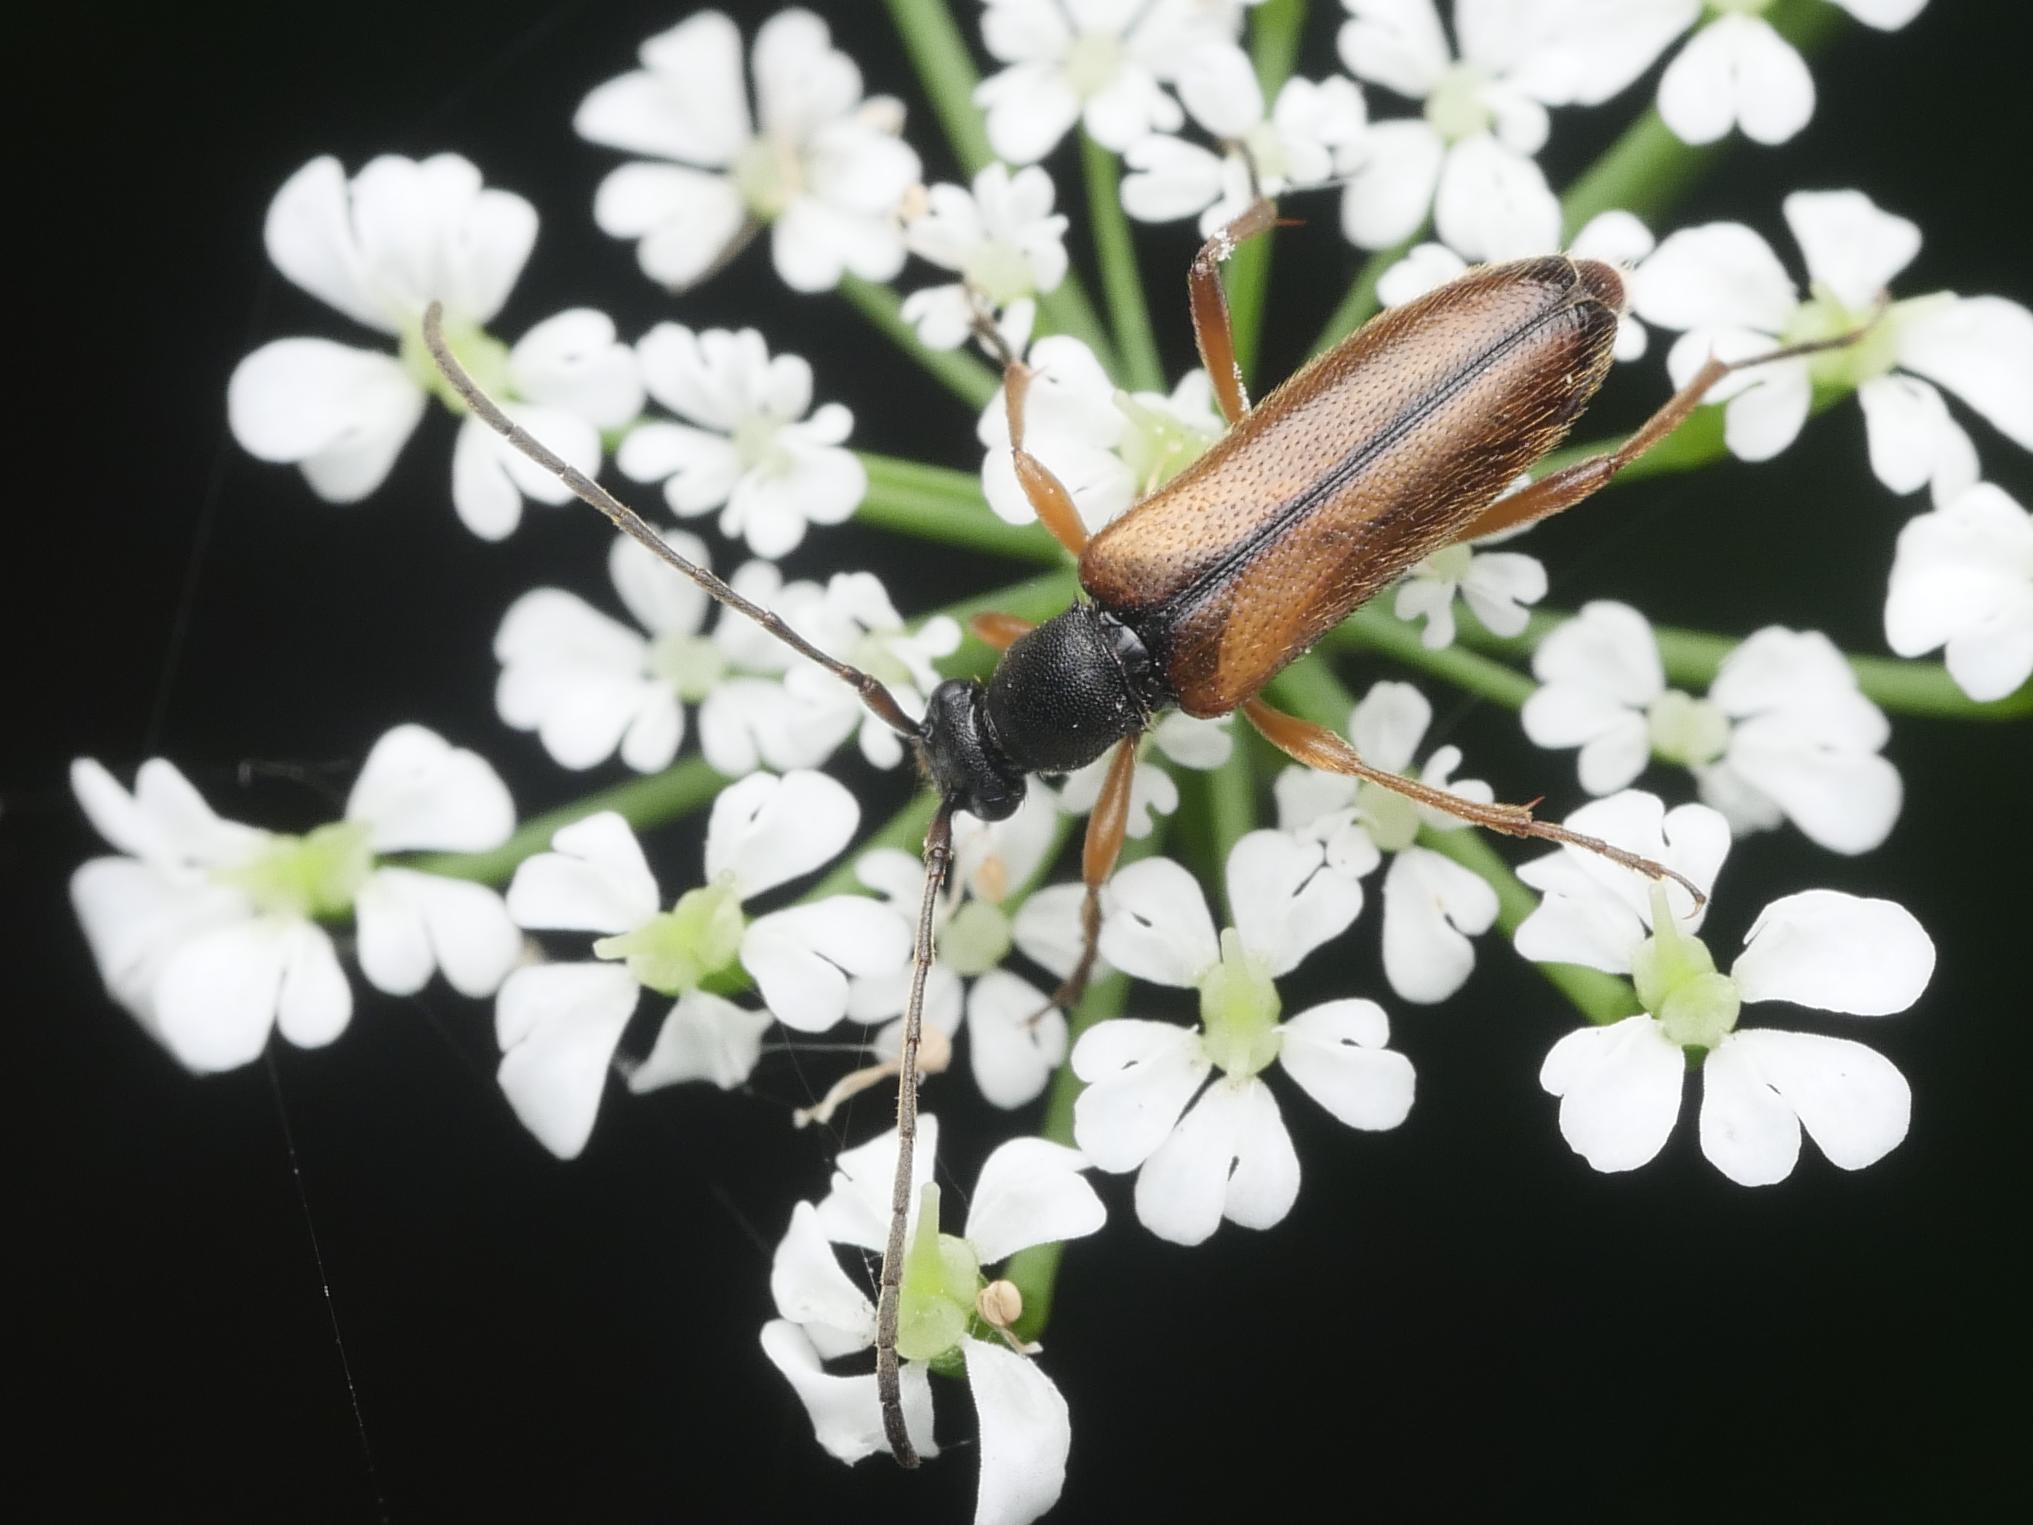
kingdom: Animalia
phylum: Arthropoda
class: Insecta
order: Coleoptera
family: Cerambycidae
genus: Alosterna
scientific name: Alosterna tabacicolor
